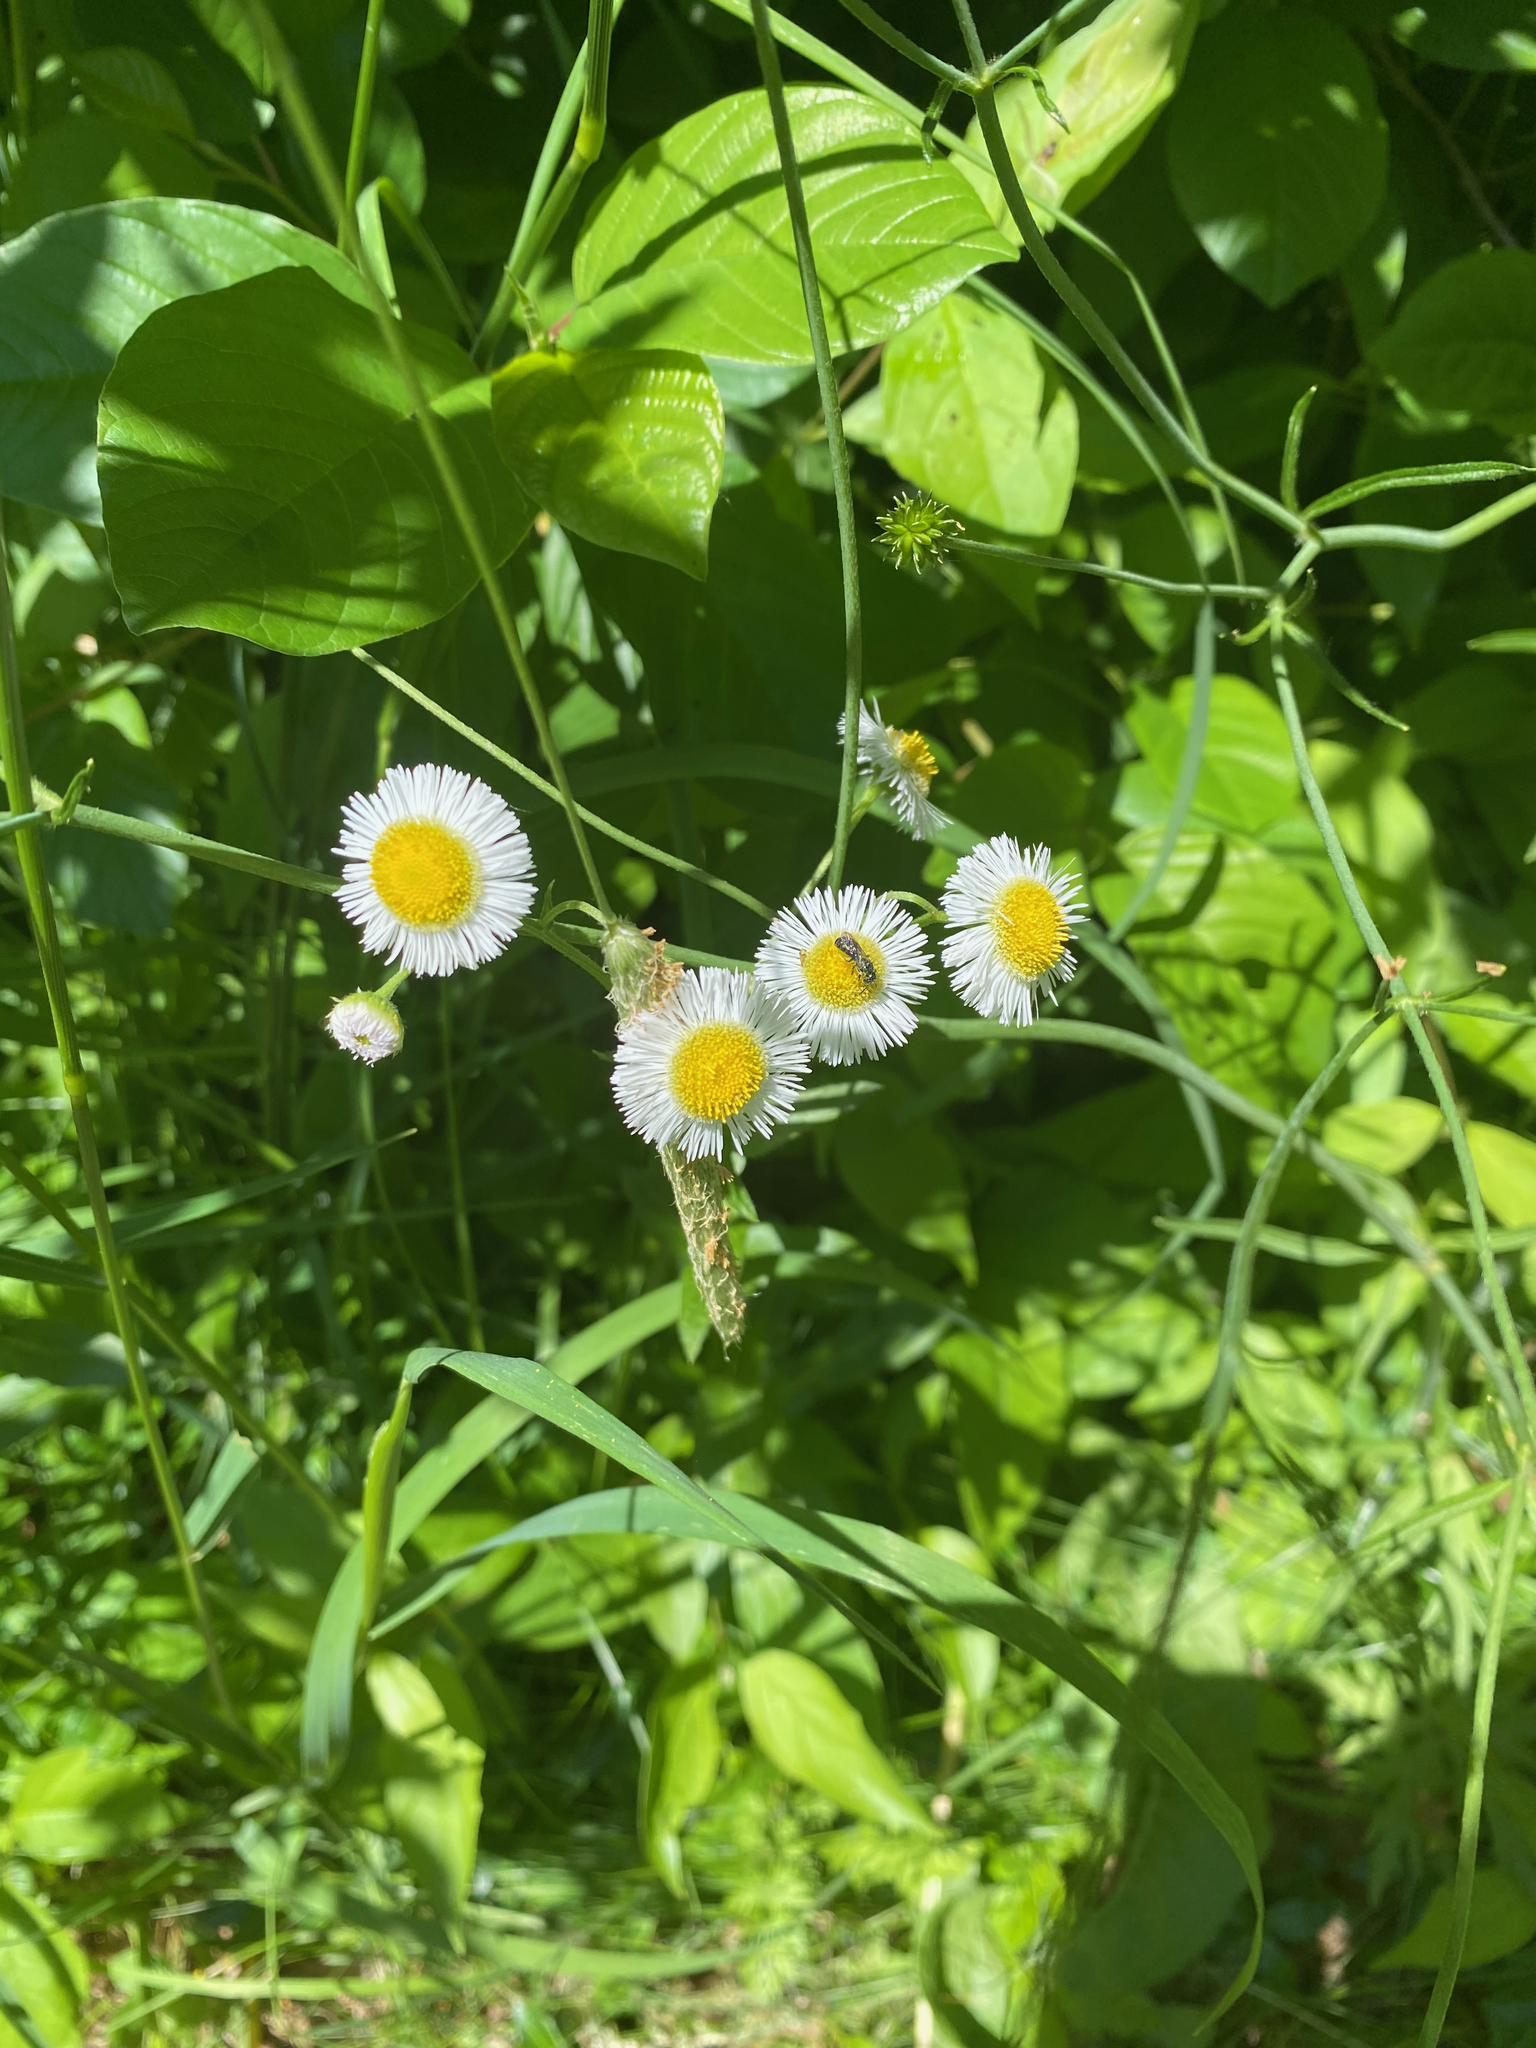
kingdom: Plantae
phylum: Tracheophyta
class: Magnoliopsida
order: Asterales
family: Asteraceae
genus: Erigeron
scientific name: Erigeron philadelphicus
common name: Robin's-plantain
